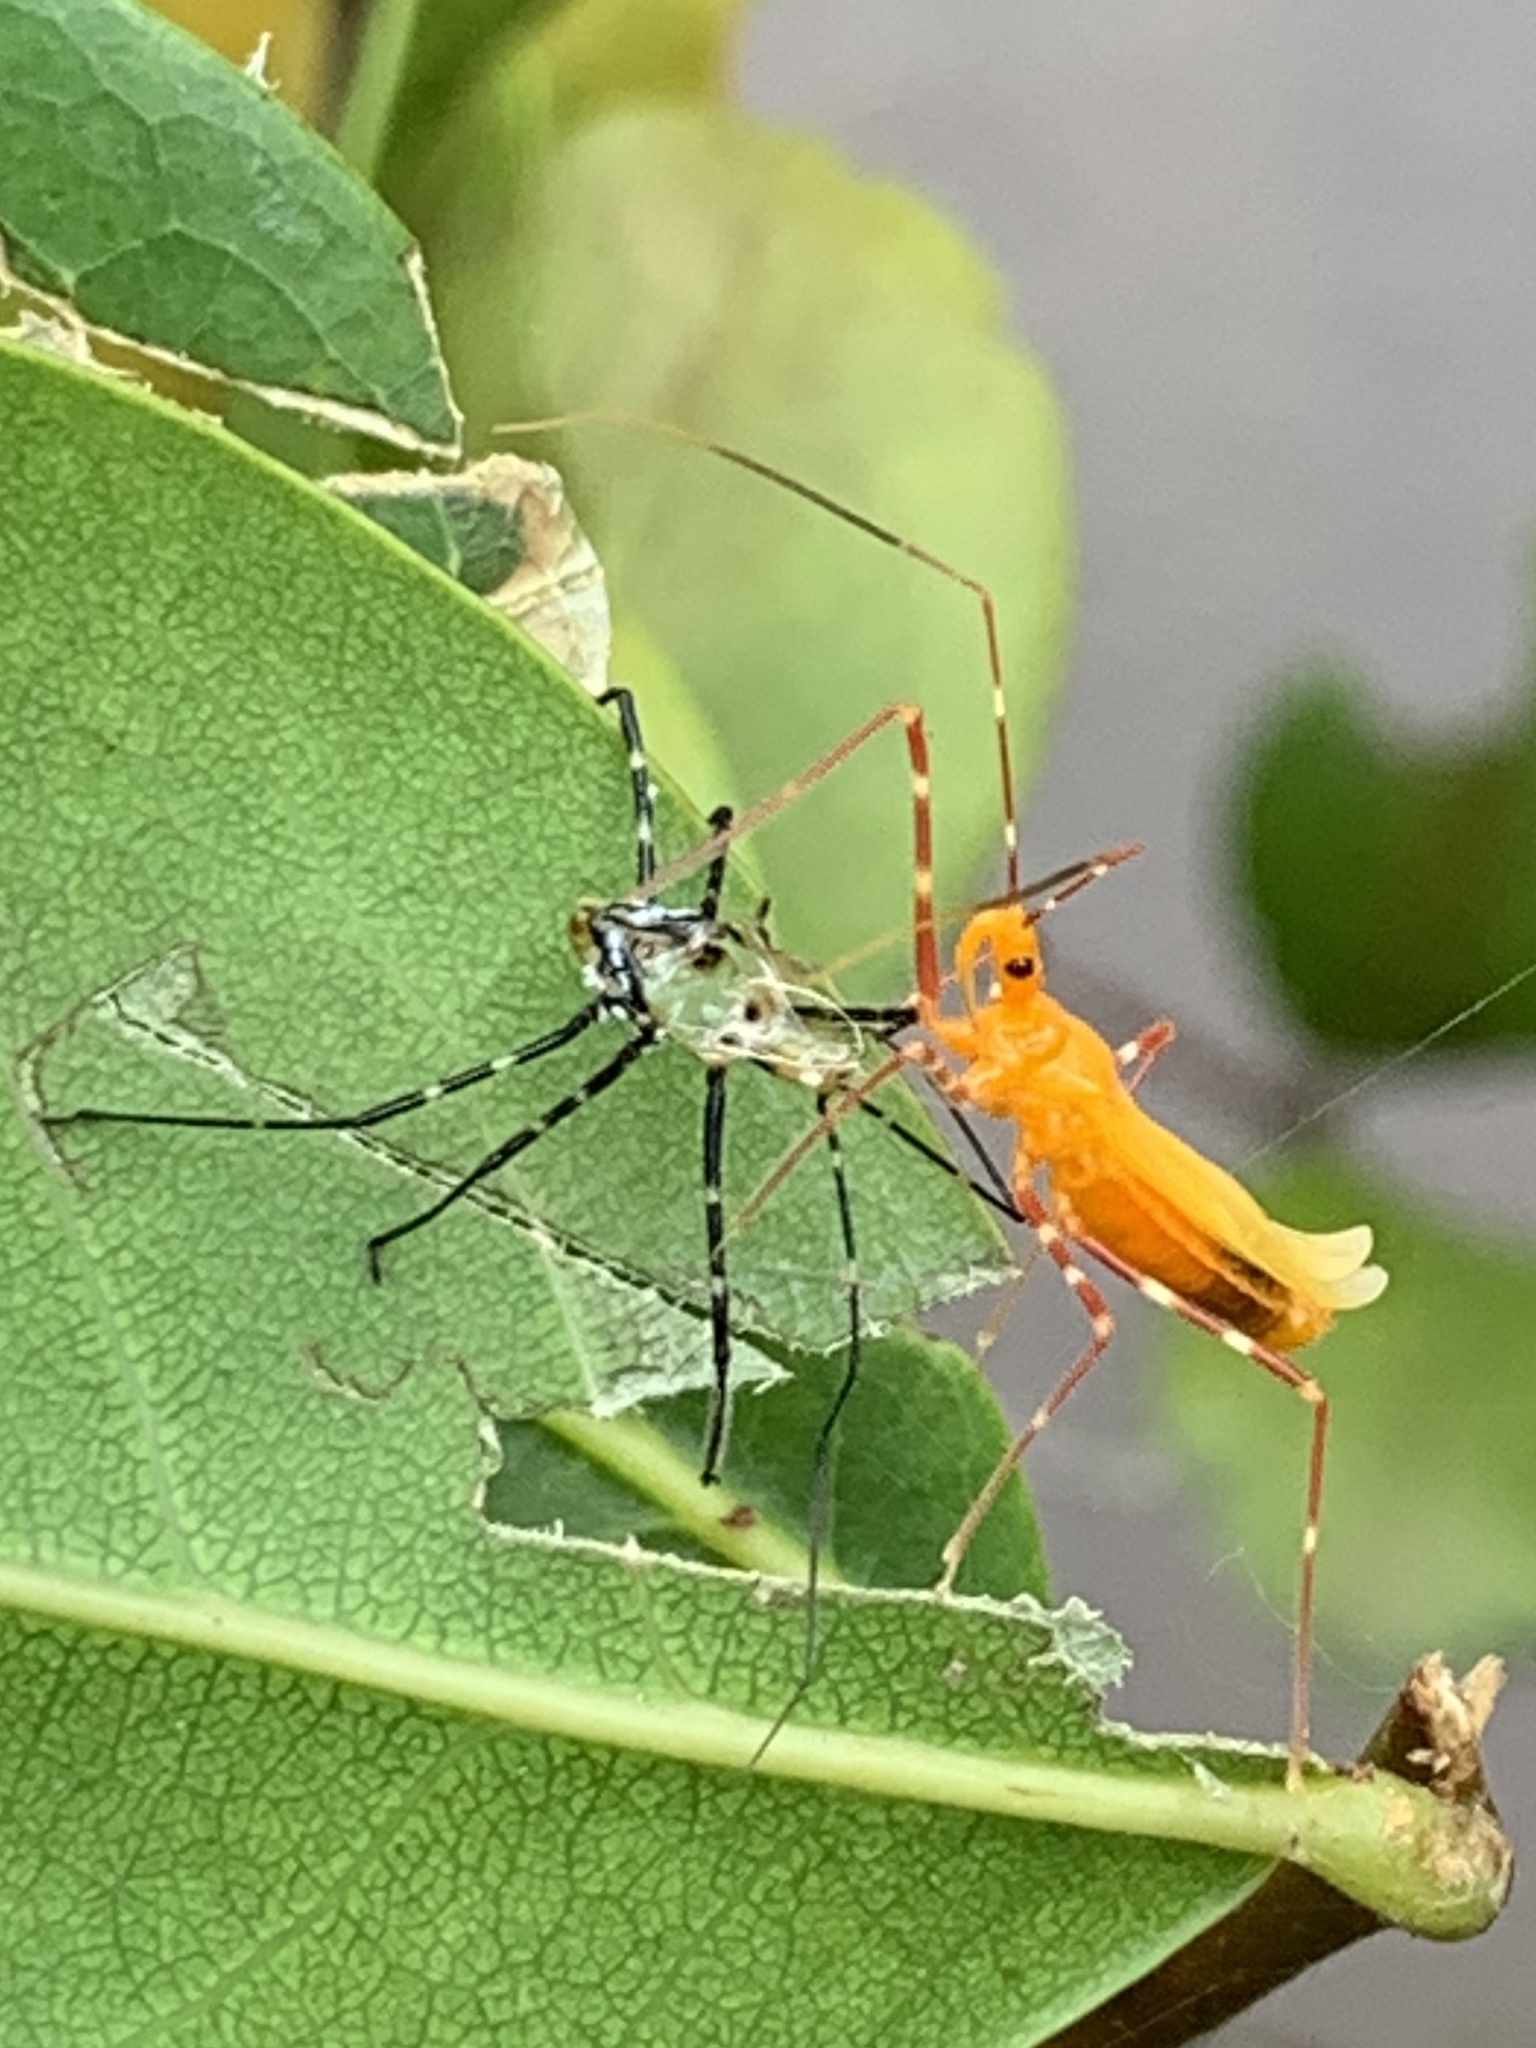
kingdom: Animalia
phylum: Arthropoda
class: Insecta
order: Hemiptera
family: Reduviidae
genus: Zelus
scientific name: Zelus longipes
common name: Milkweed assassin bug
